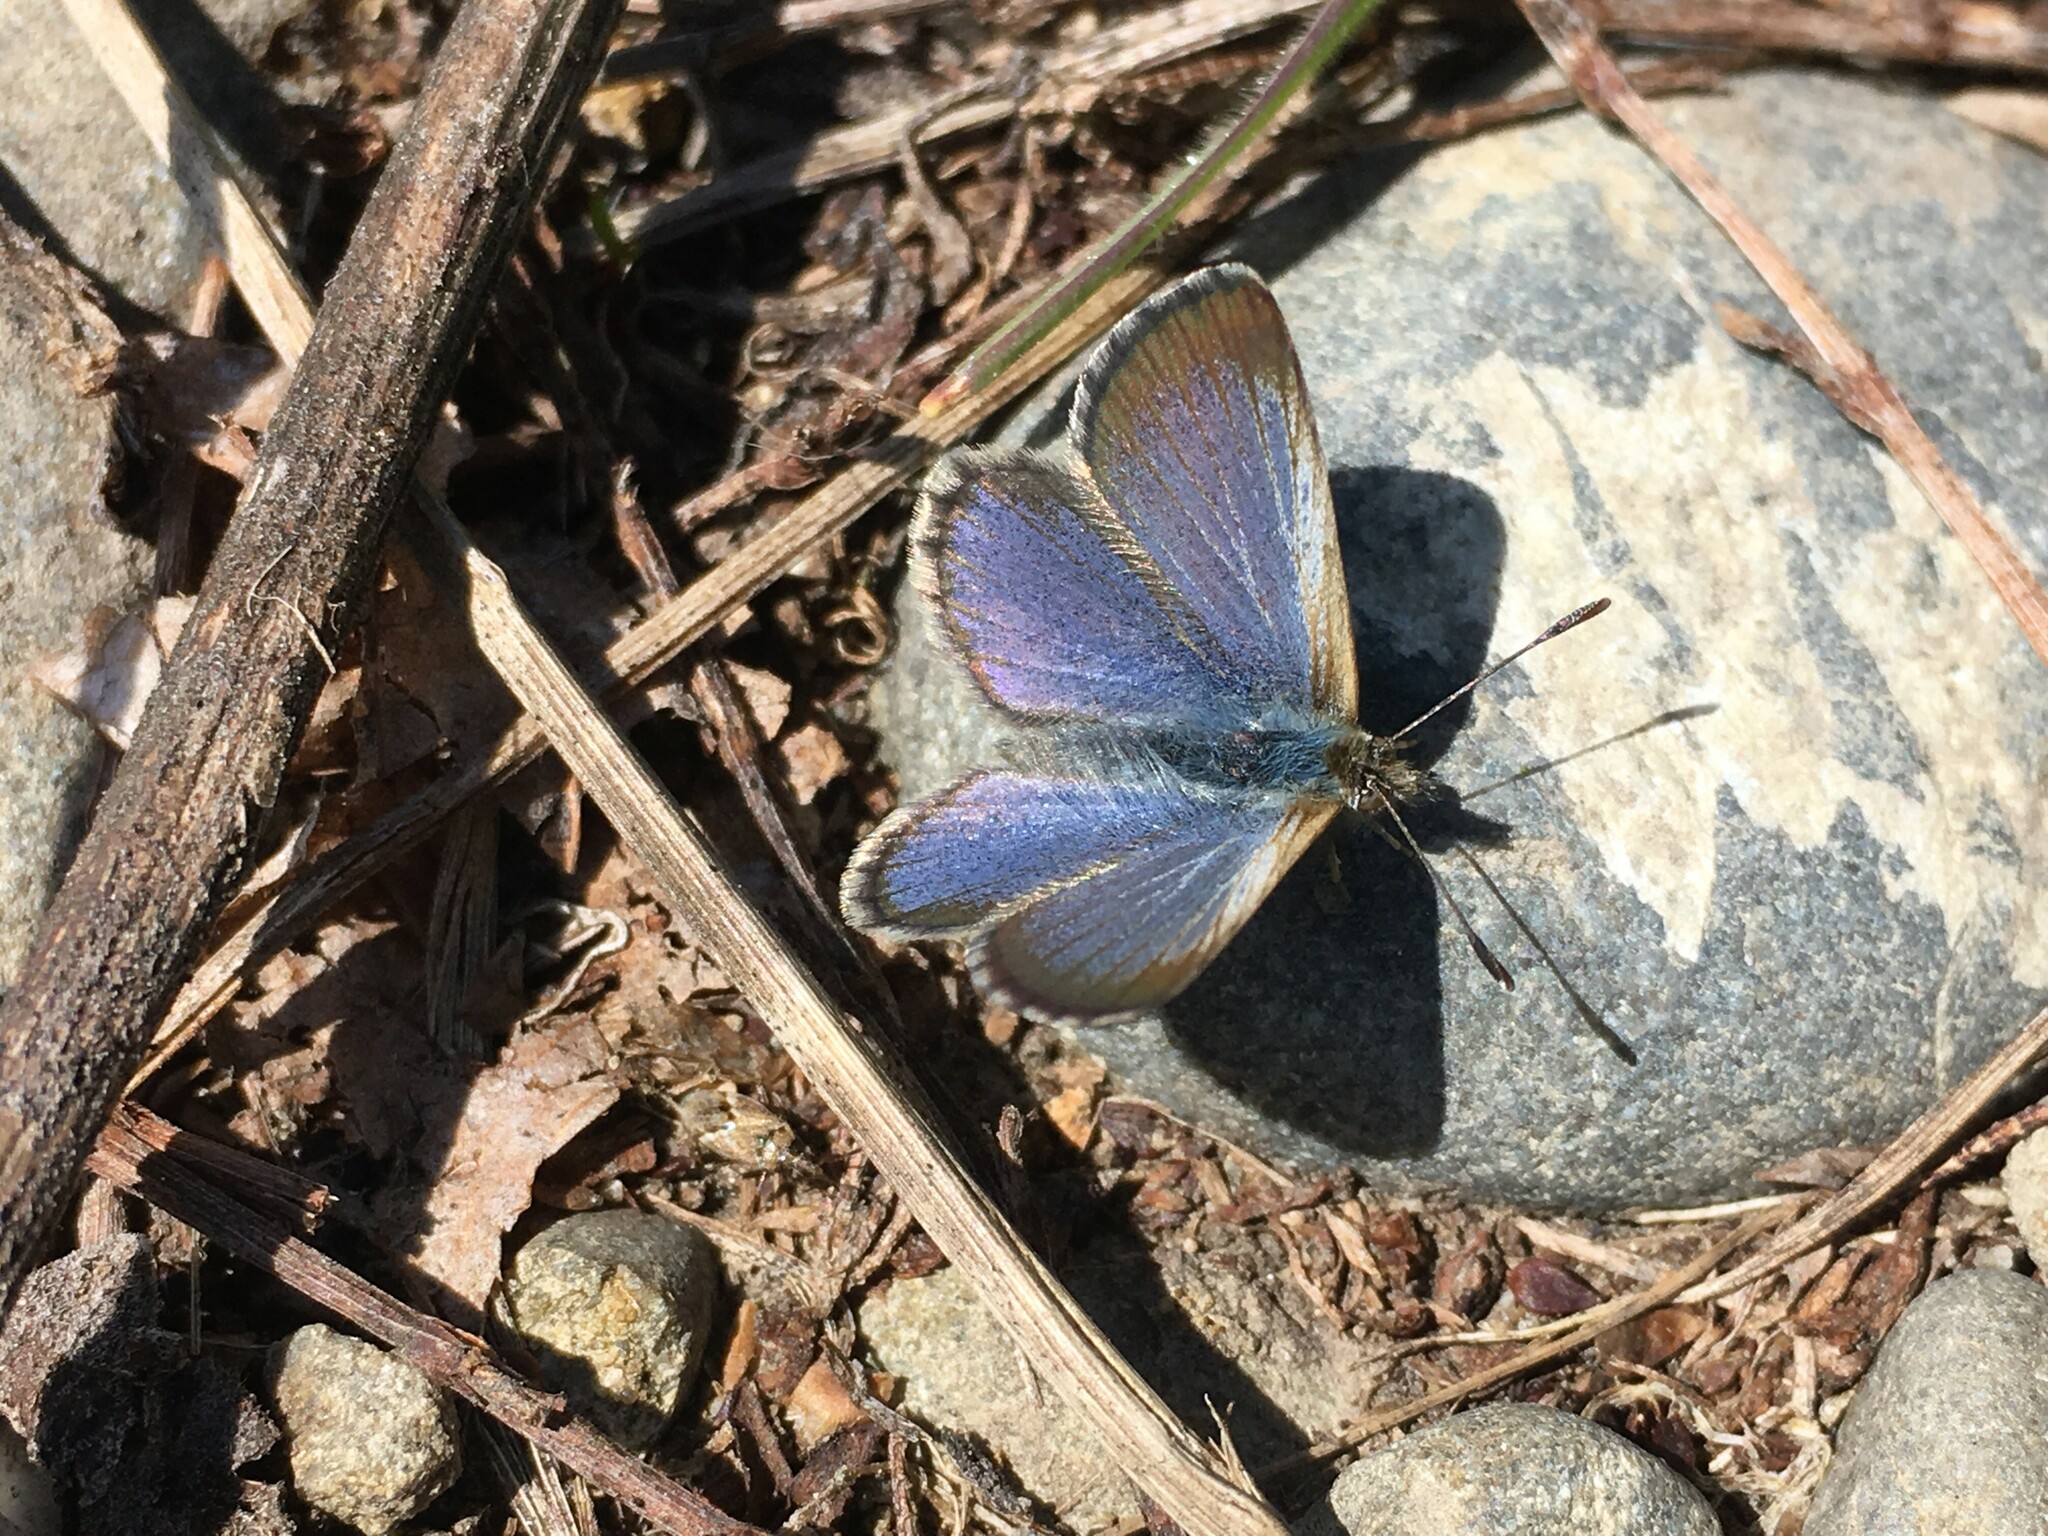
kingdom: Animalia
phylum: Arthropoda
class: Insecta
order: Lepidoptera
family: Lycaenidae
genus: Zizina
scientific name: Zizina oxleyi
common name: Southern blue
